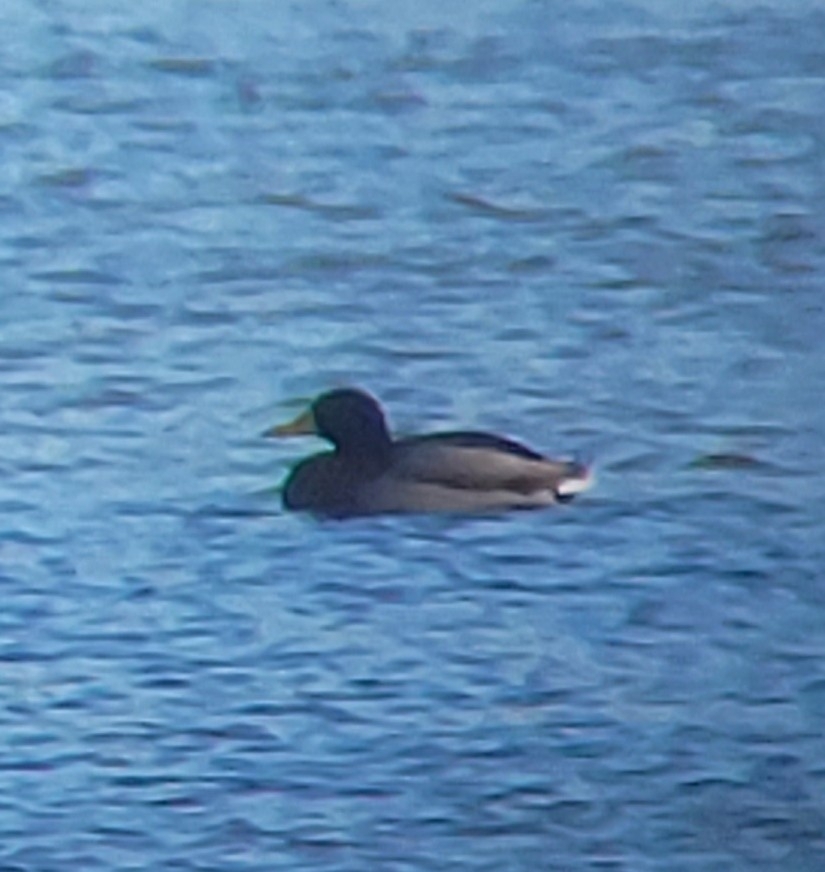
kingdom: Animalia
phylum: Chordata
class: Aves
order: Anseriformes
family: Anatidae
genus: Anas
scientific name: Anas platyrhynchos
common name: Mallard
